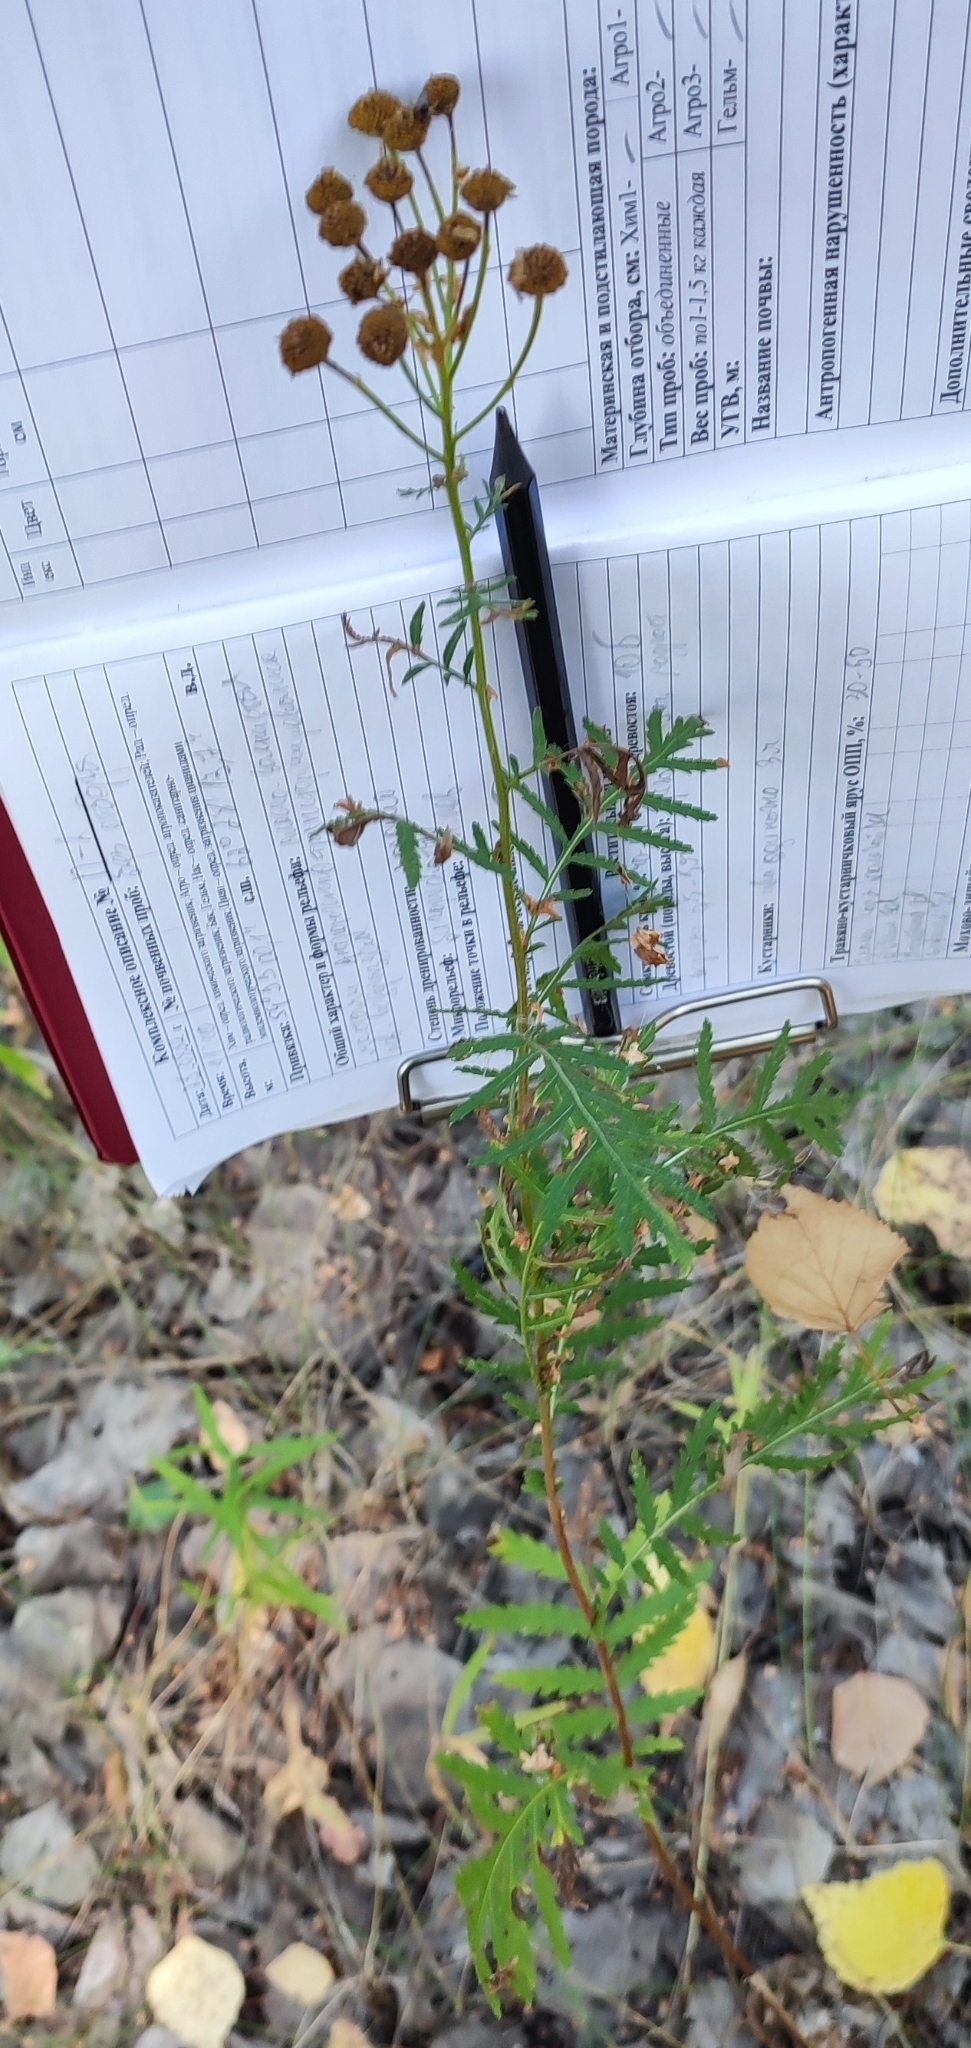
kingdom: Plantae
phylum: Tracheophyta
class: Magnoliopsida
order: Asterales
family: Asteraceae
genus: Tanacetum
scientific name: Tanacetum vulgare
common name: Common tansy
